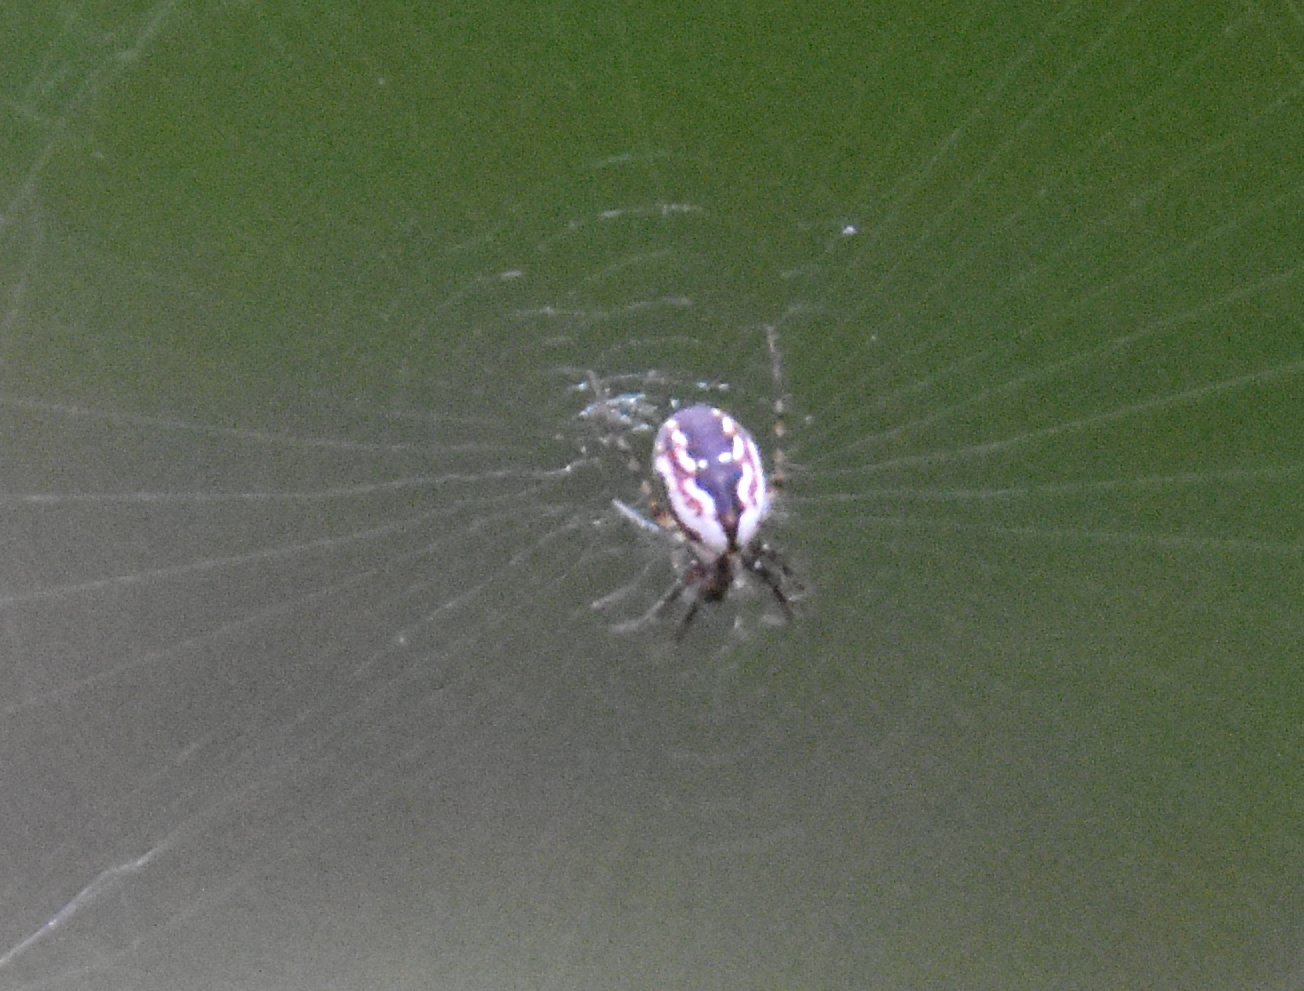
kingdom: Animalia
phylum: Arthropoda
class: Arachnida
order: Araneae
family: Araneidae
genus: Mangora
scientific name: Mangora placida
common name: Tuft-legged orbweaver
